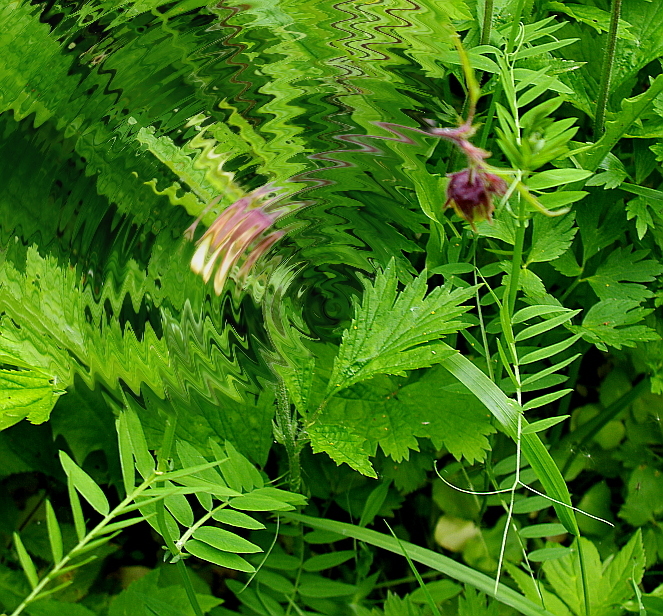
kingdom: Plantae
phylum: Tracheophyta
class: Magnoliopsida
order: Fabales
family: Fabaceae
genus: Vicia
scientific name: Vicia cracca
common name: Bird vetch
